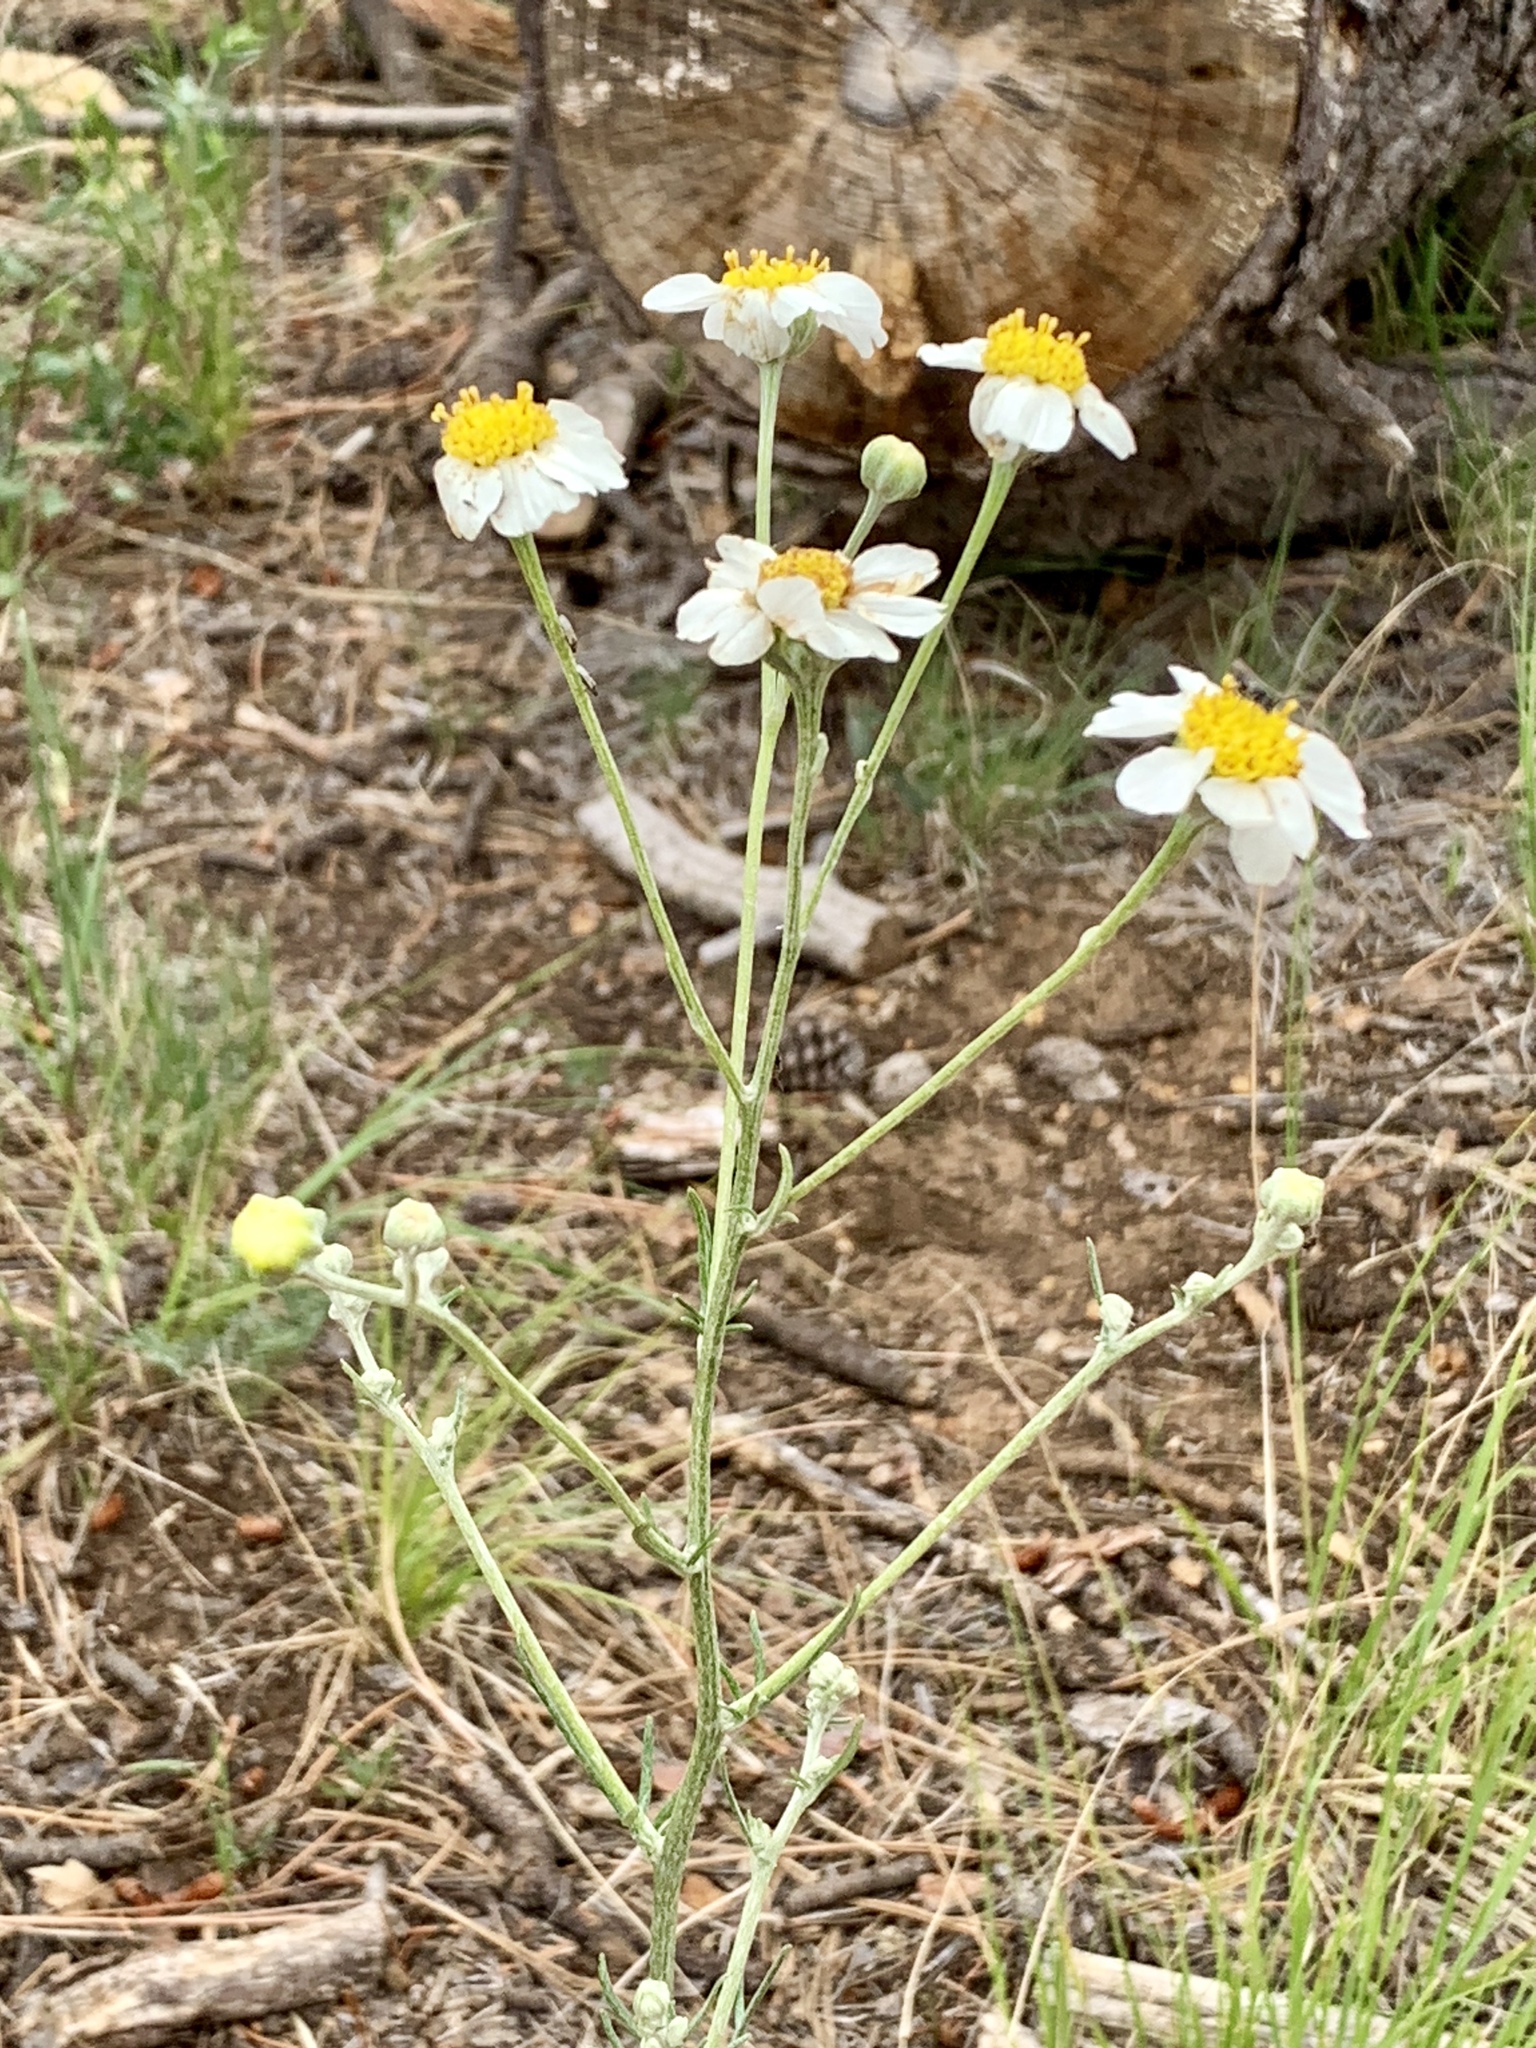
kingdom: Plantae
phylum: Tracheophyta
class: Magnoliopsida
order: Asterales
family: Asteraceae
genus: Melampodium
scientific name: Melampodium leucanthum
